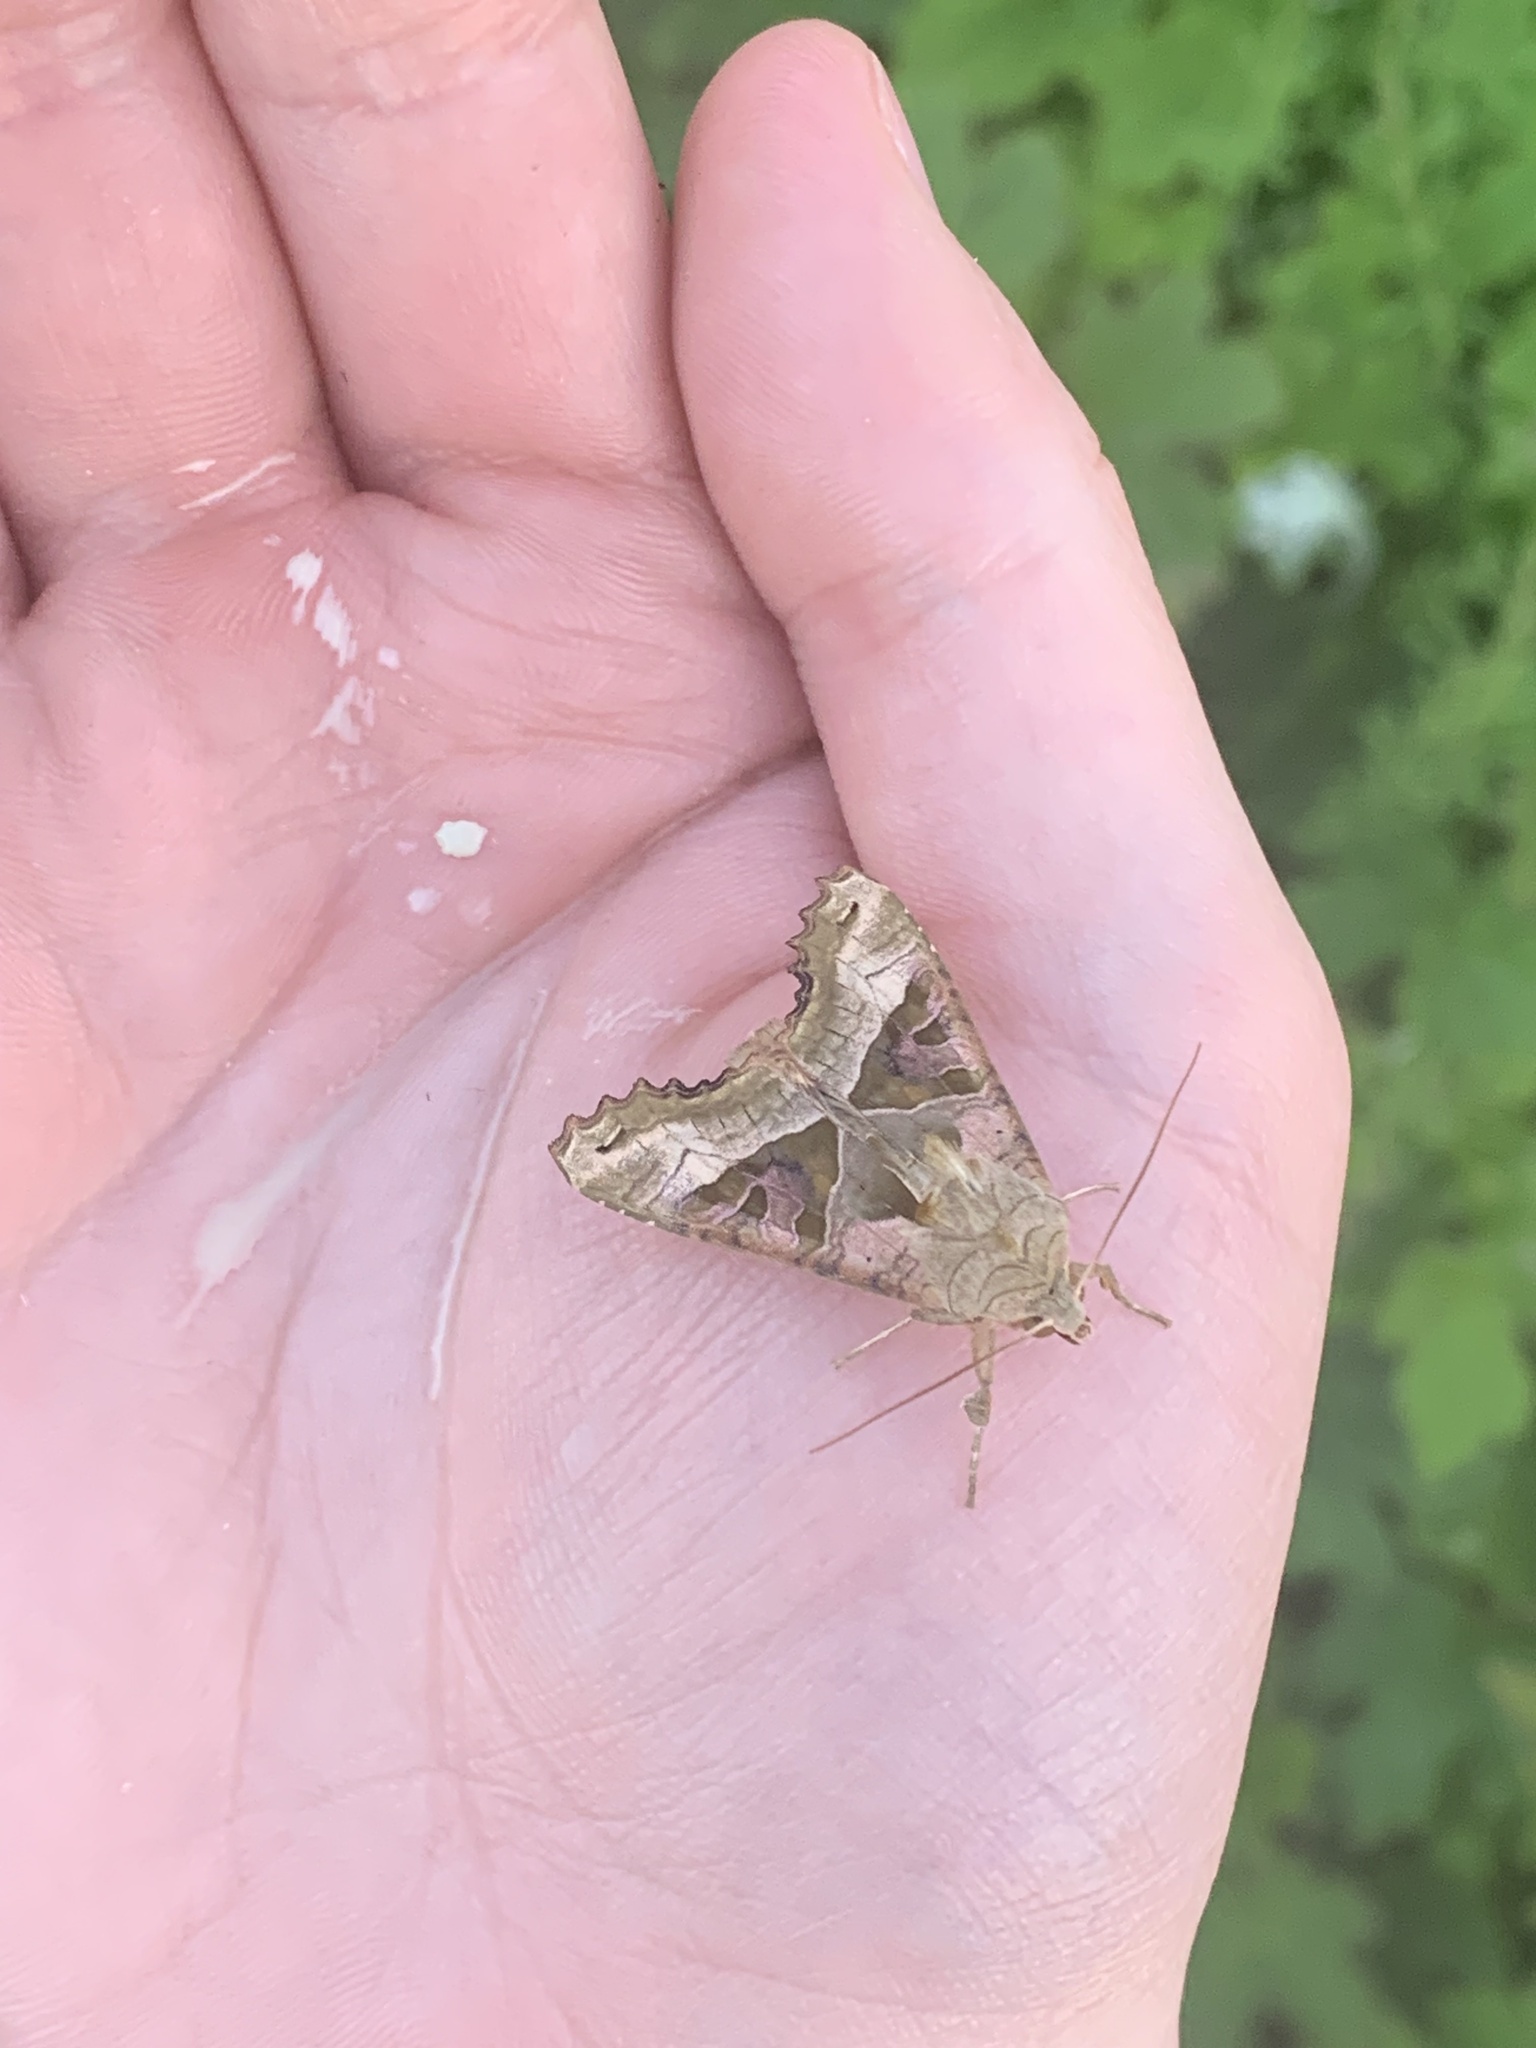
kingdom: Animalia
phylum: Arthropoda
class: Insecta
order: Lepidoptera
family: Noctuidae
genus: Phlogophora
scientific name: Phlogophora meticulosa
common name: Angle shades
